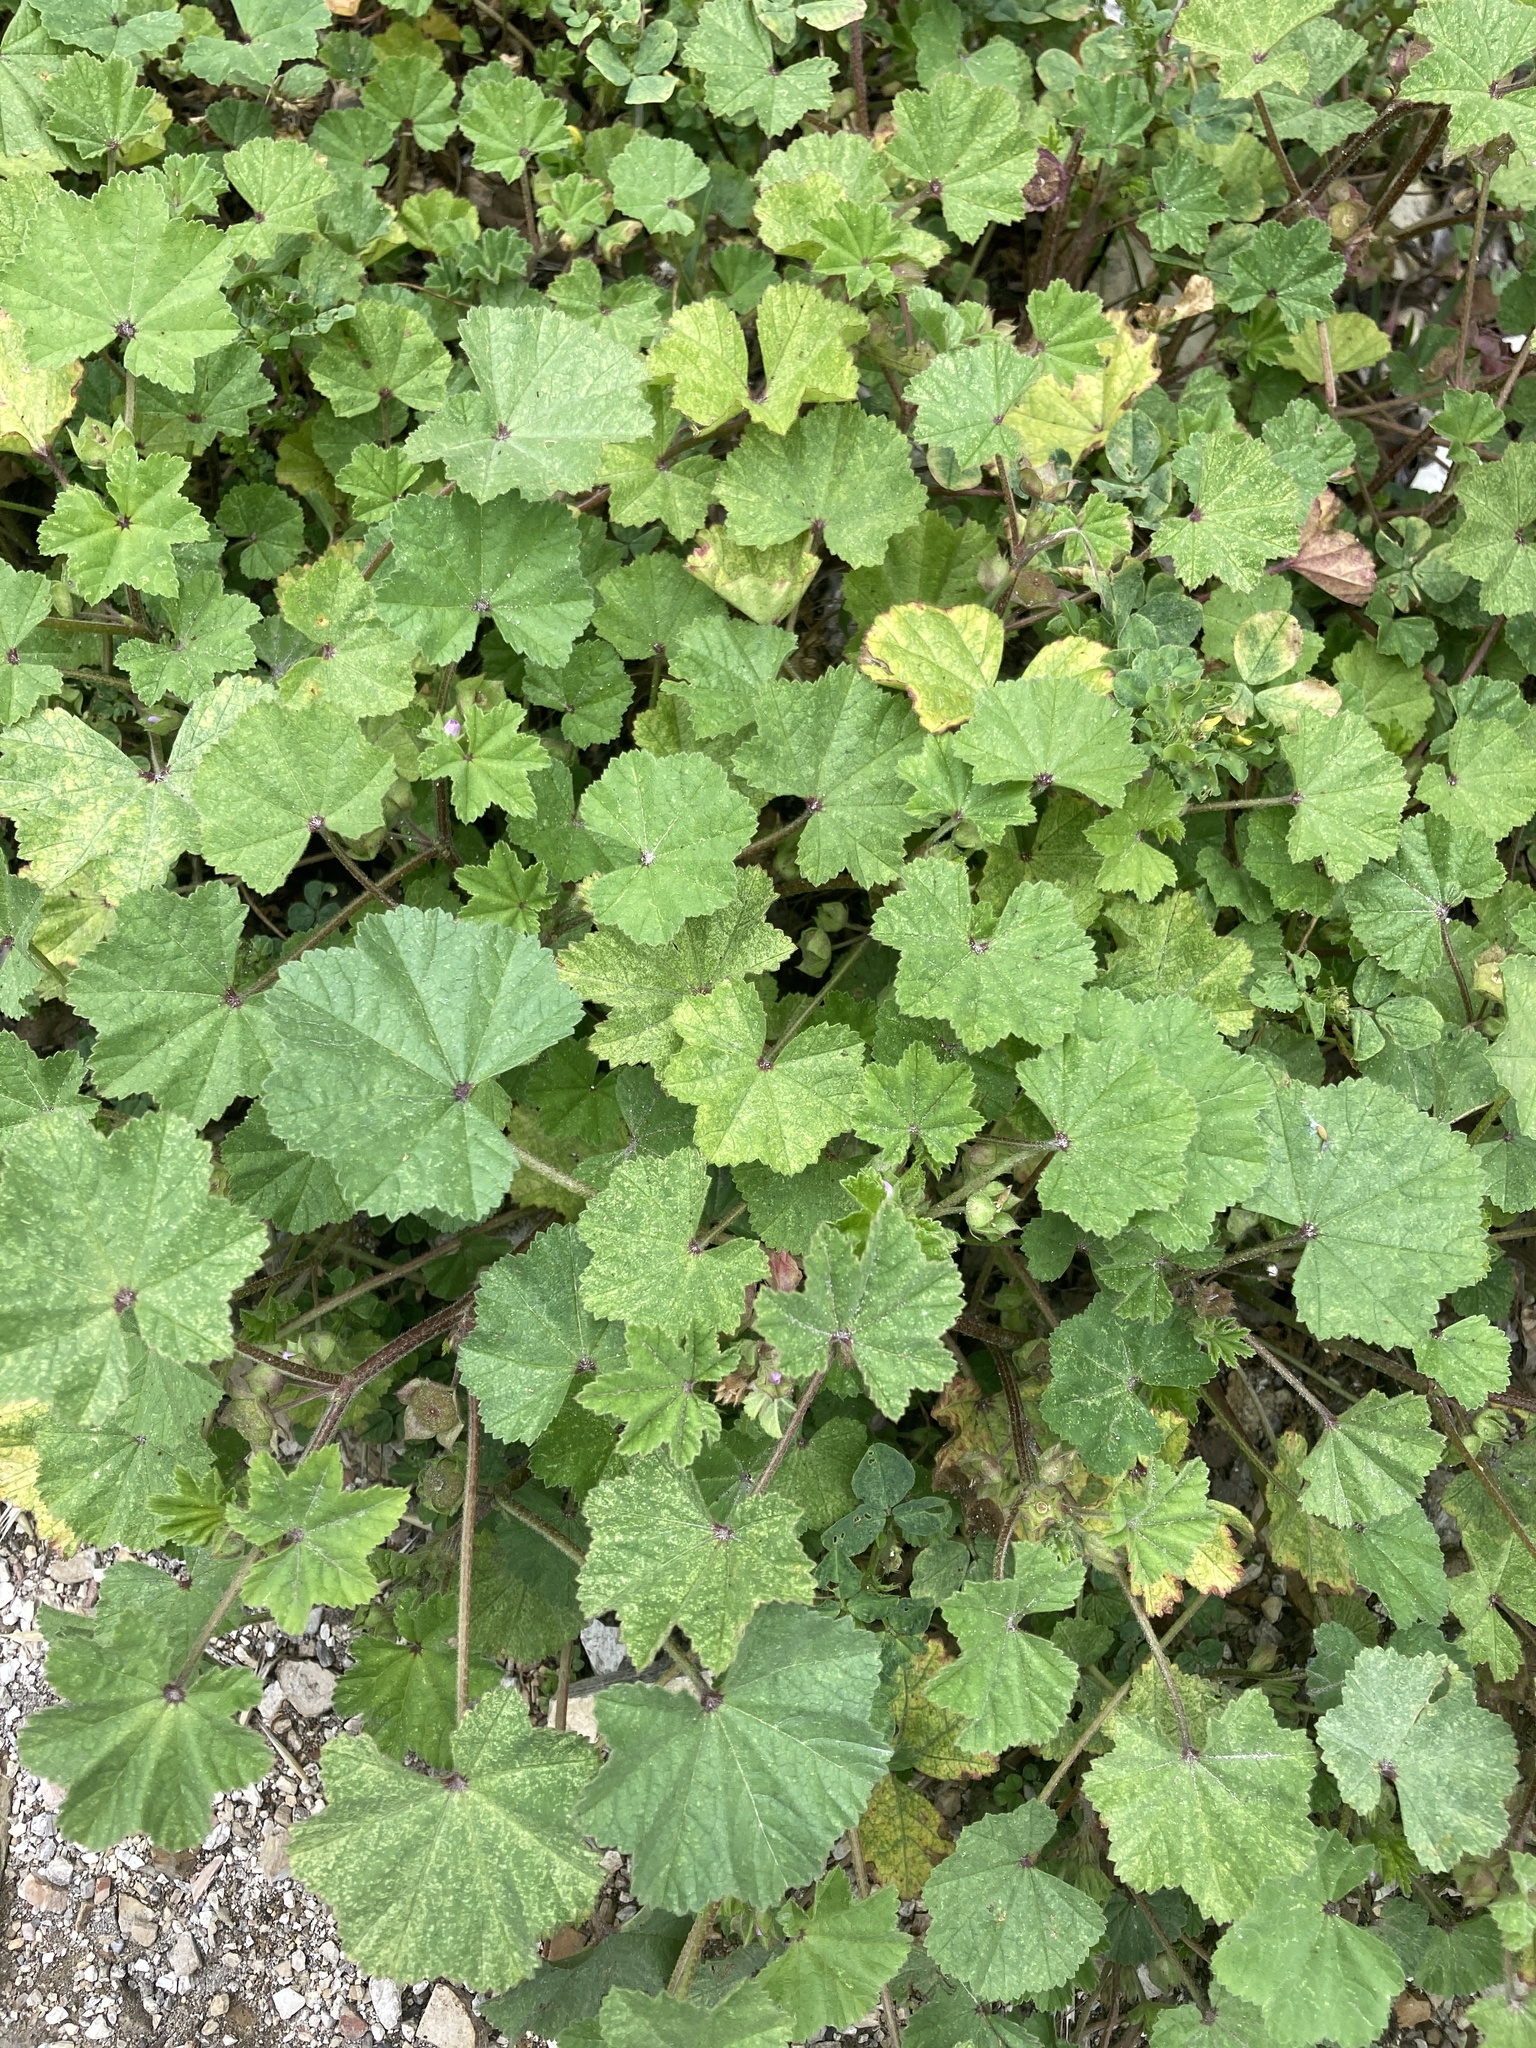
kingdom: Plantae
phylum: Tracheophyta
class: Magnoliopsida
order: Malvales
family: Malvaceae
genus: Malva
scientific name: Malva parviflora
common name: Least mallow
